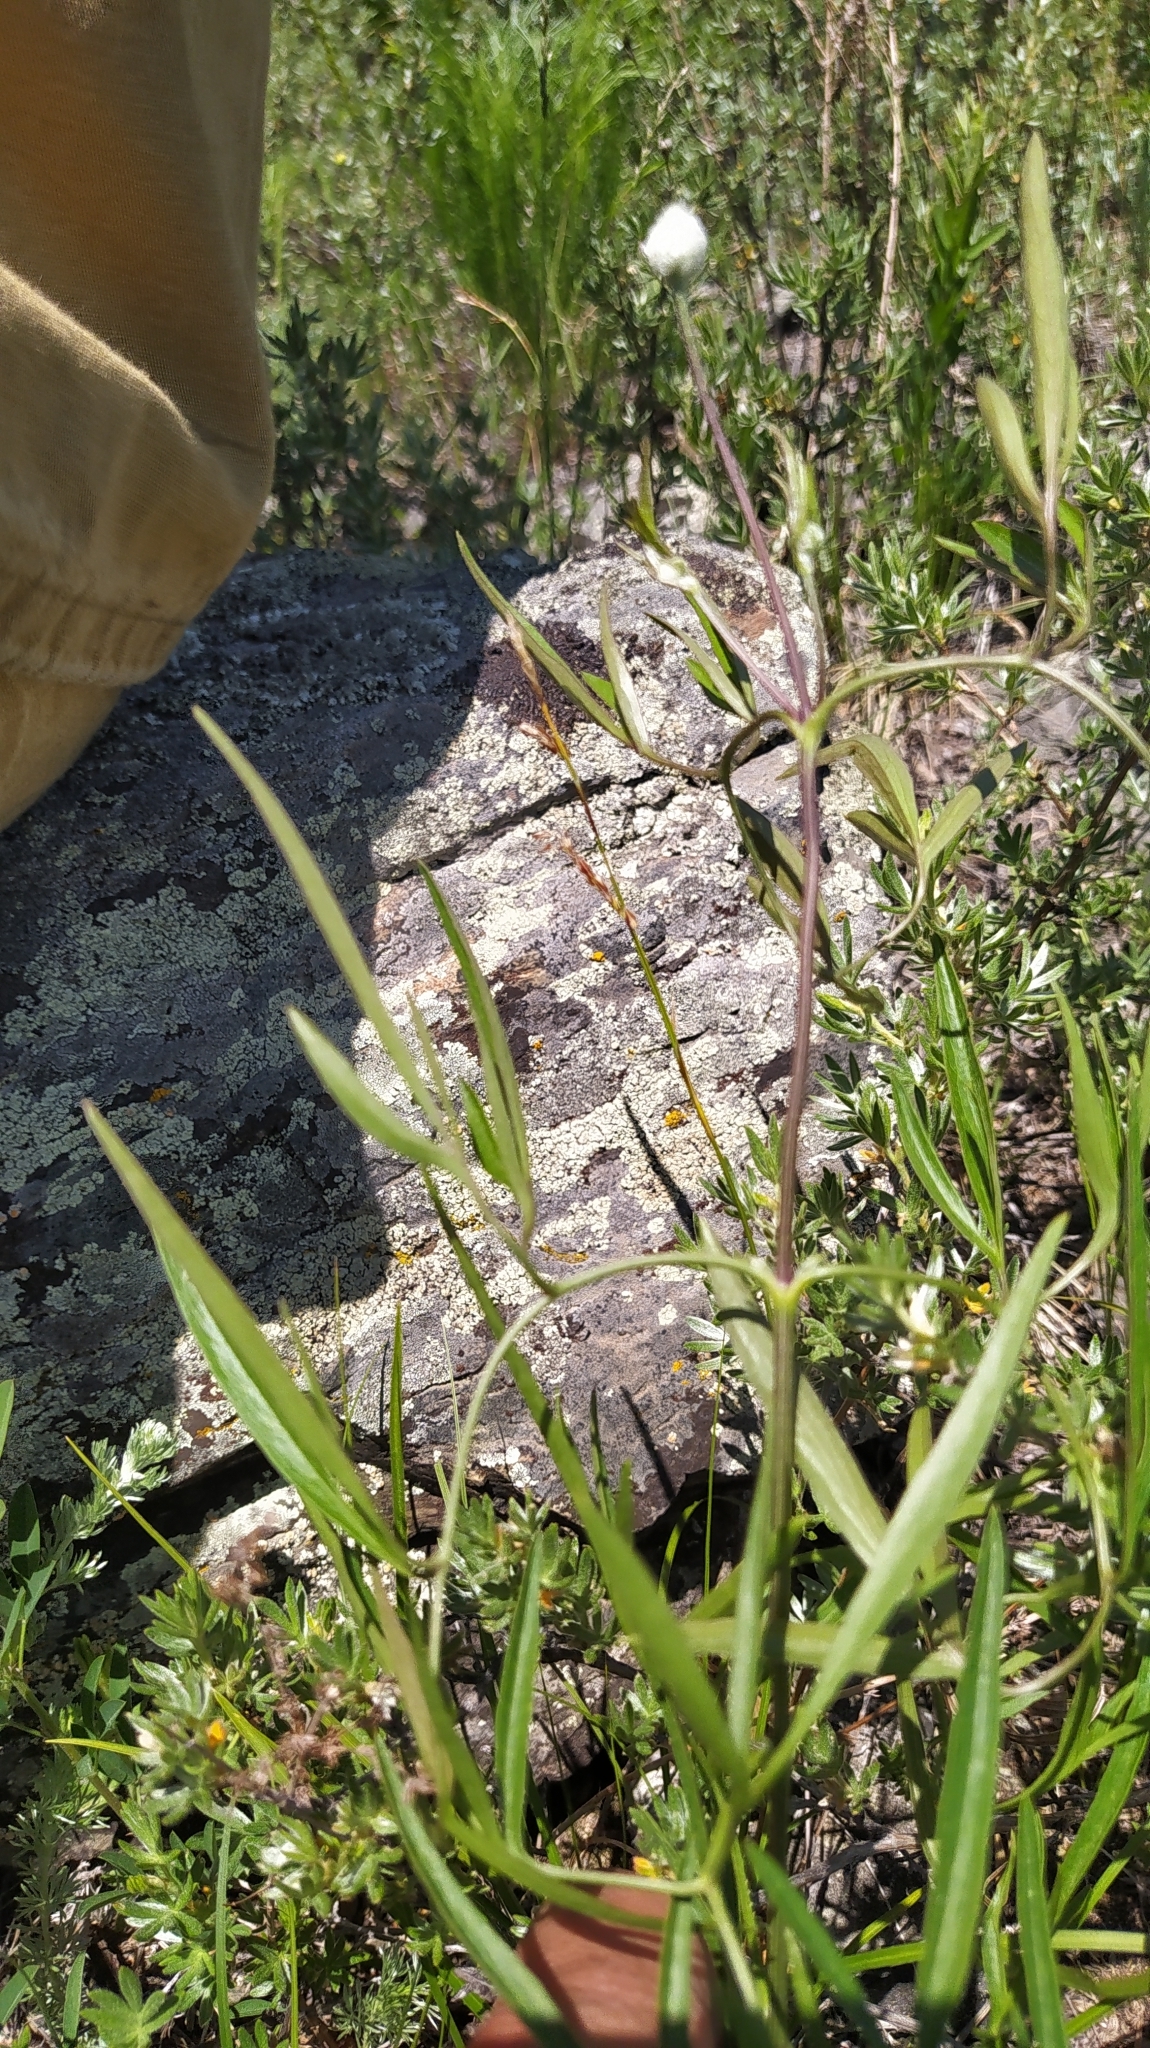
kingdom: Plantae
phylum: Tracheophyta
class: Magnoliopsida
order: Ranunculales
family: Ranunculaceae
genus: Clematis
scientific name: Clematis hexapetala
